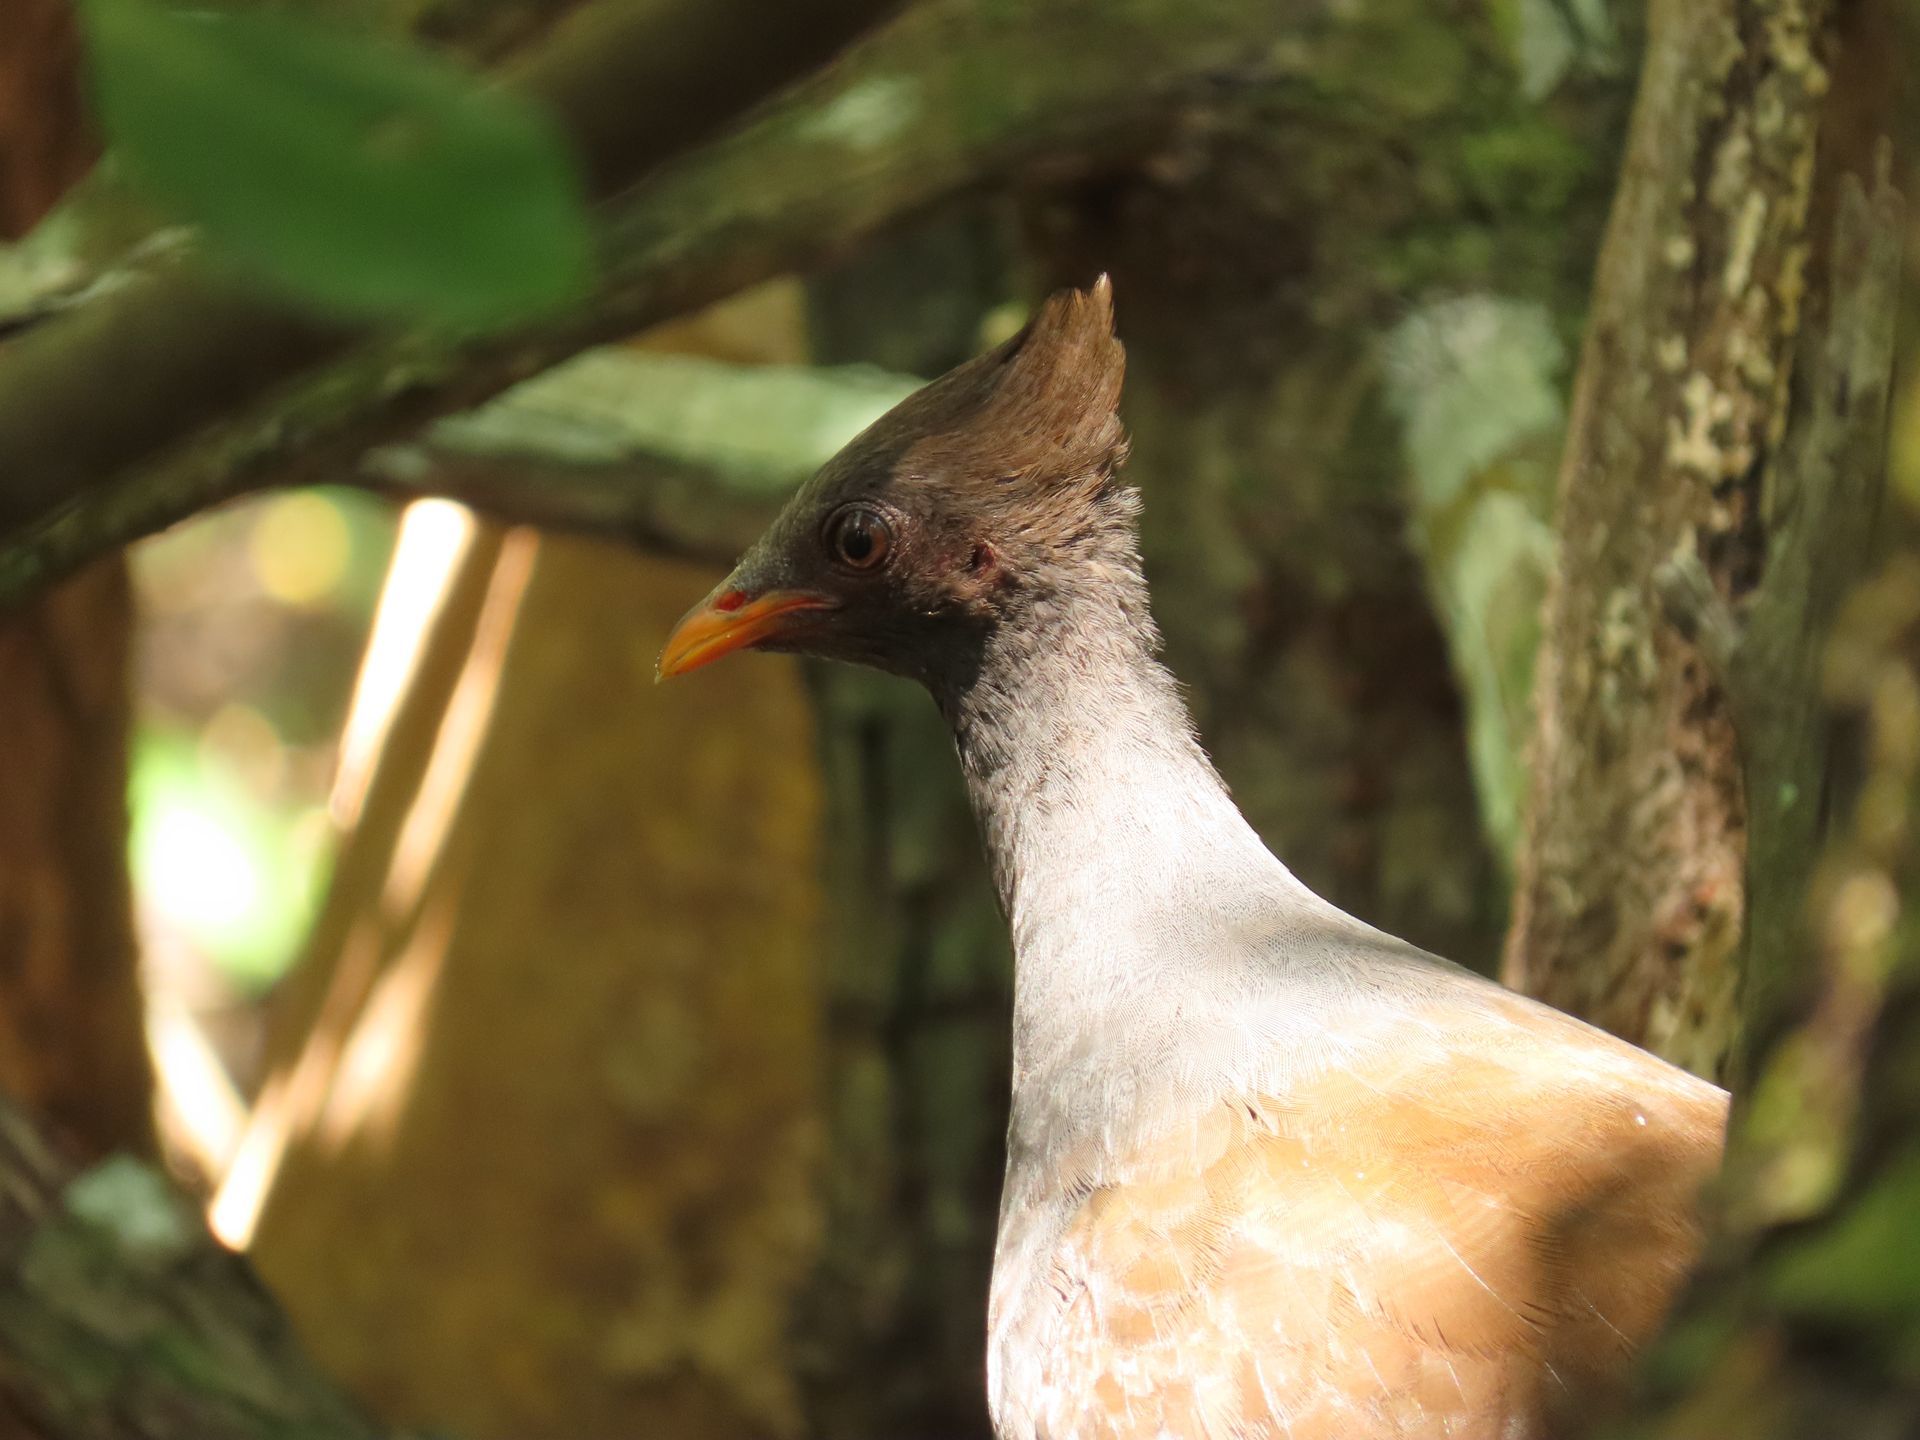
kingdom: Animalia
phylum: Chordata
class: Aves
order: Galliformes
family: Megapodiidae
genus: Megapodius
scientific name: Megapodius reinwardt
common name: Orange-footed scrubfowl
